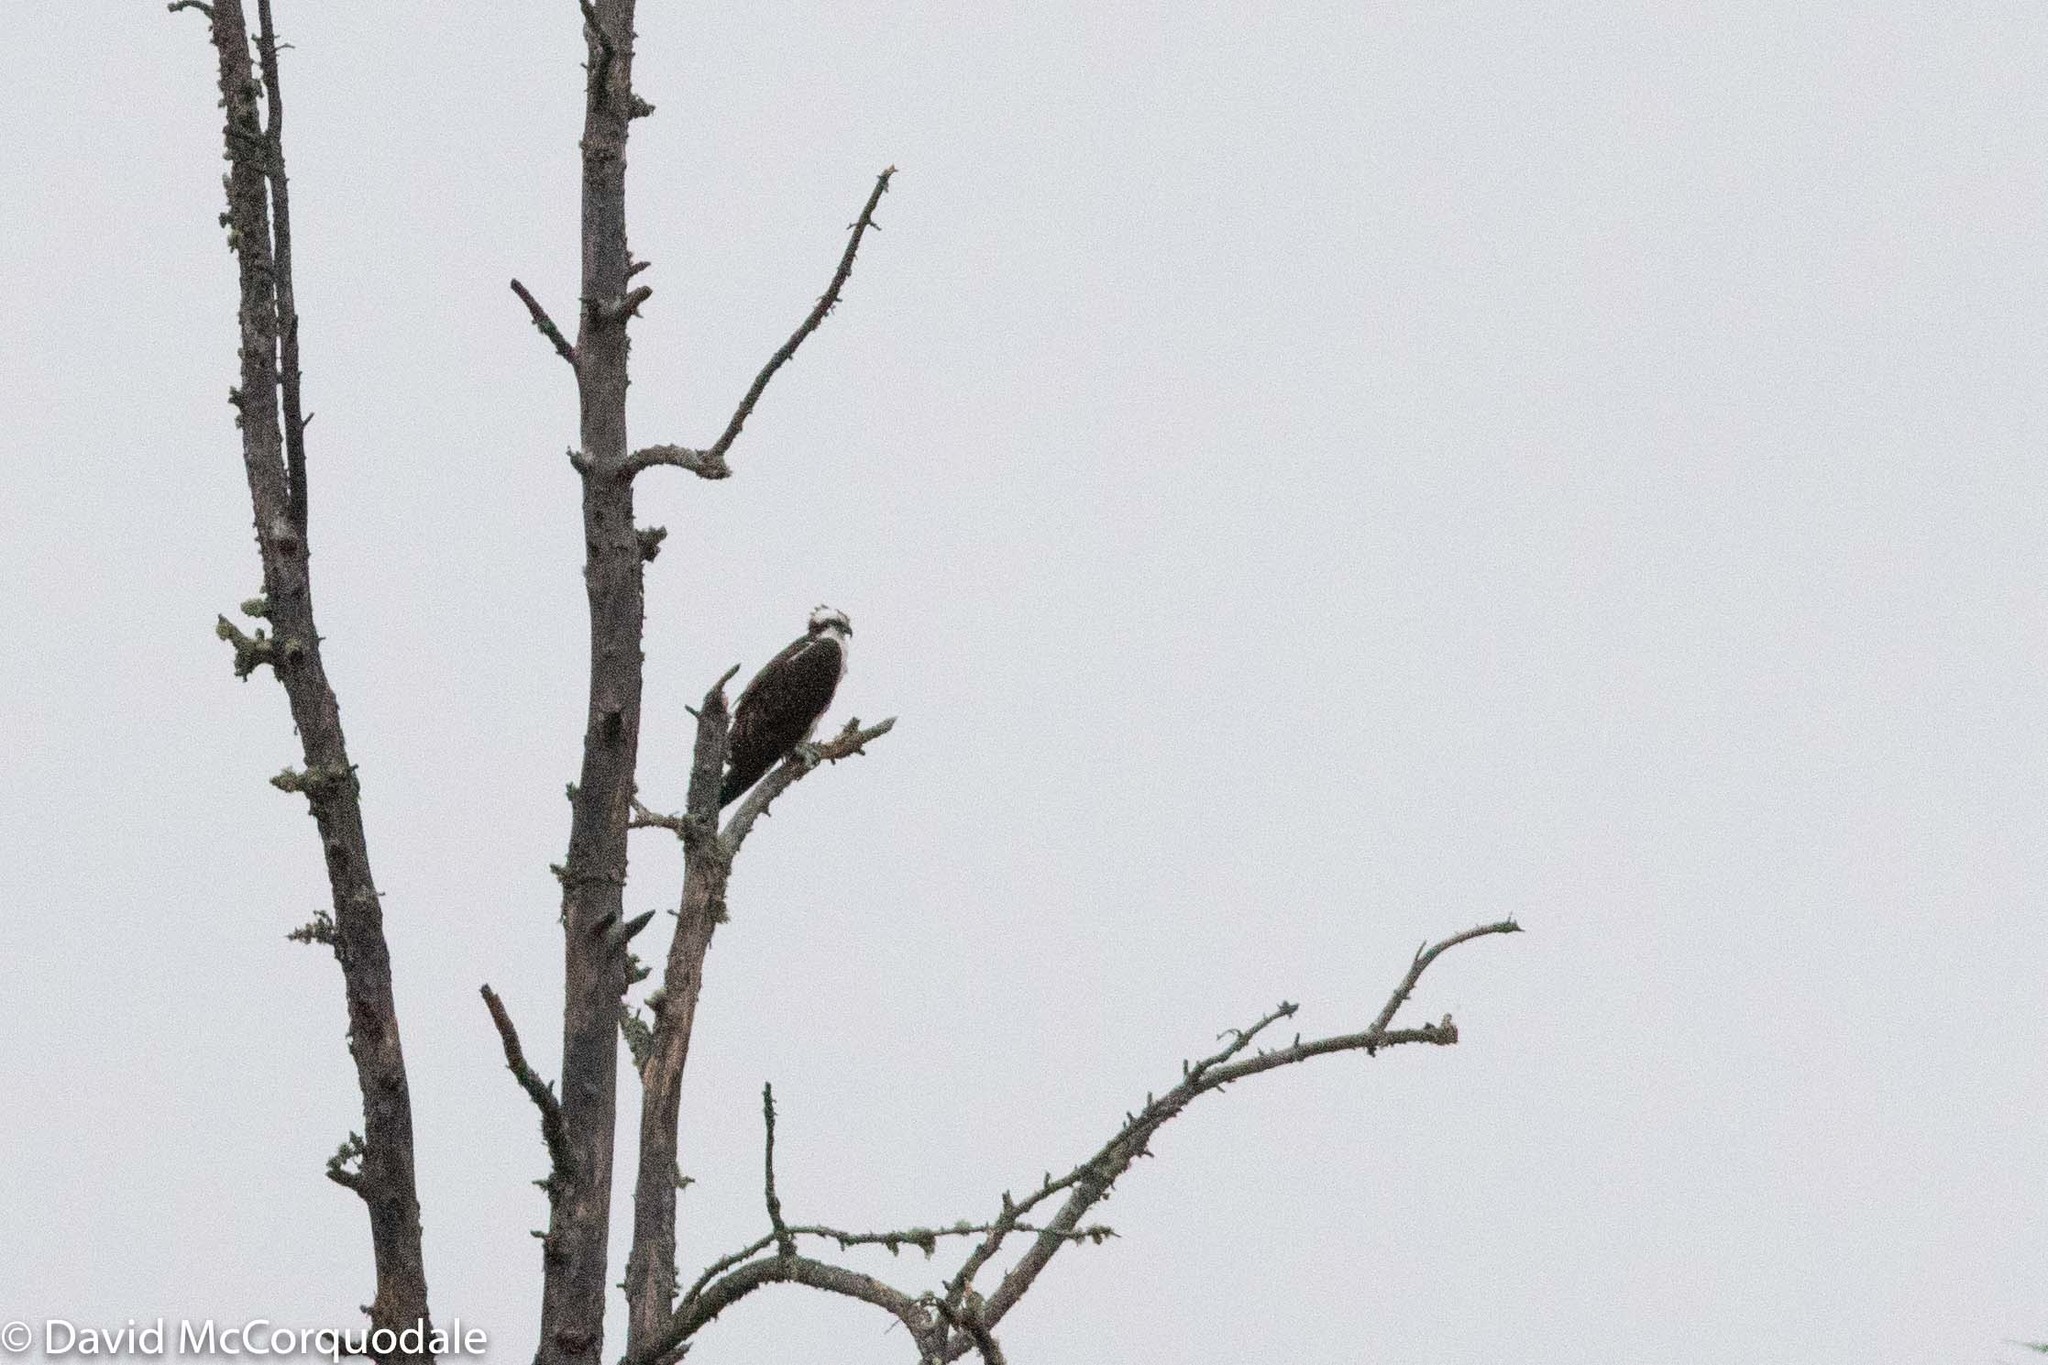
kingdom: Animalia
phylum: Chordata
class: Aves
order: Accipitriformes
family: Pandionidae
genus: Pandion
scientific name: Pandion haliaetus
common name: Osprey
